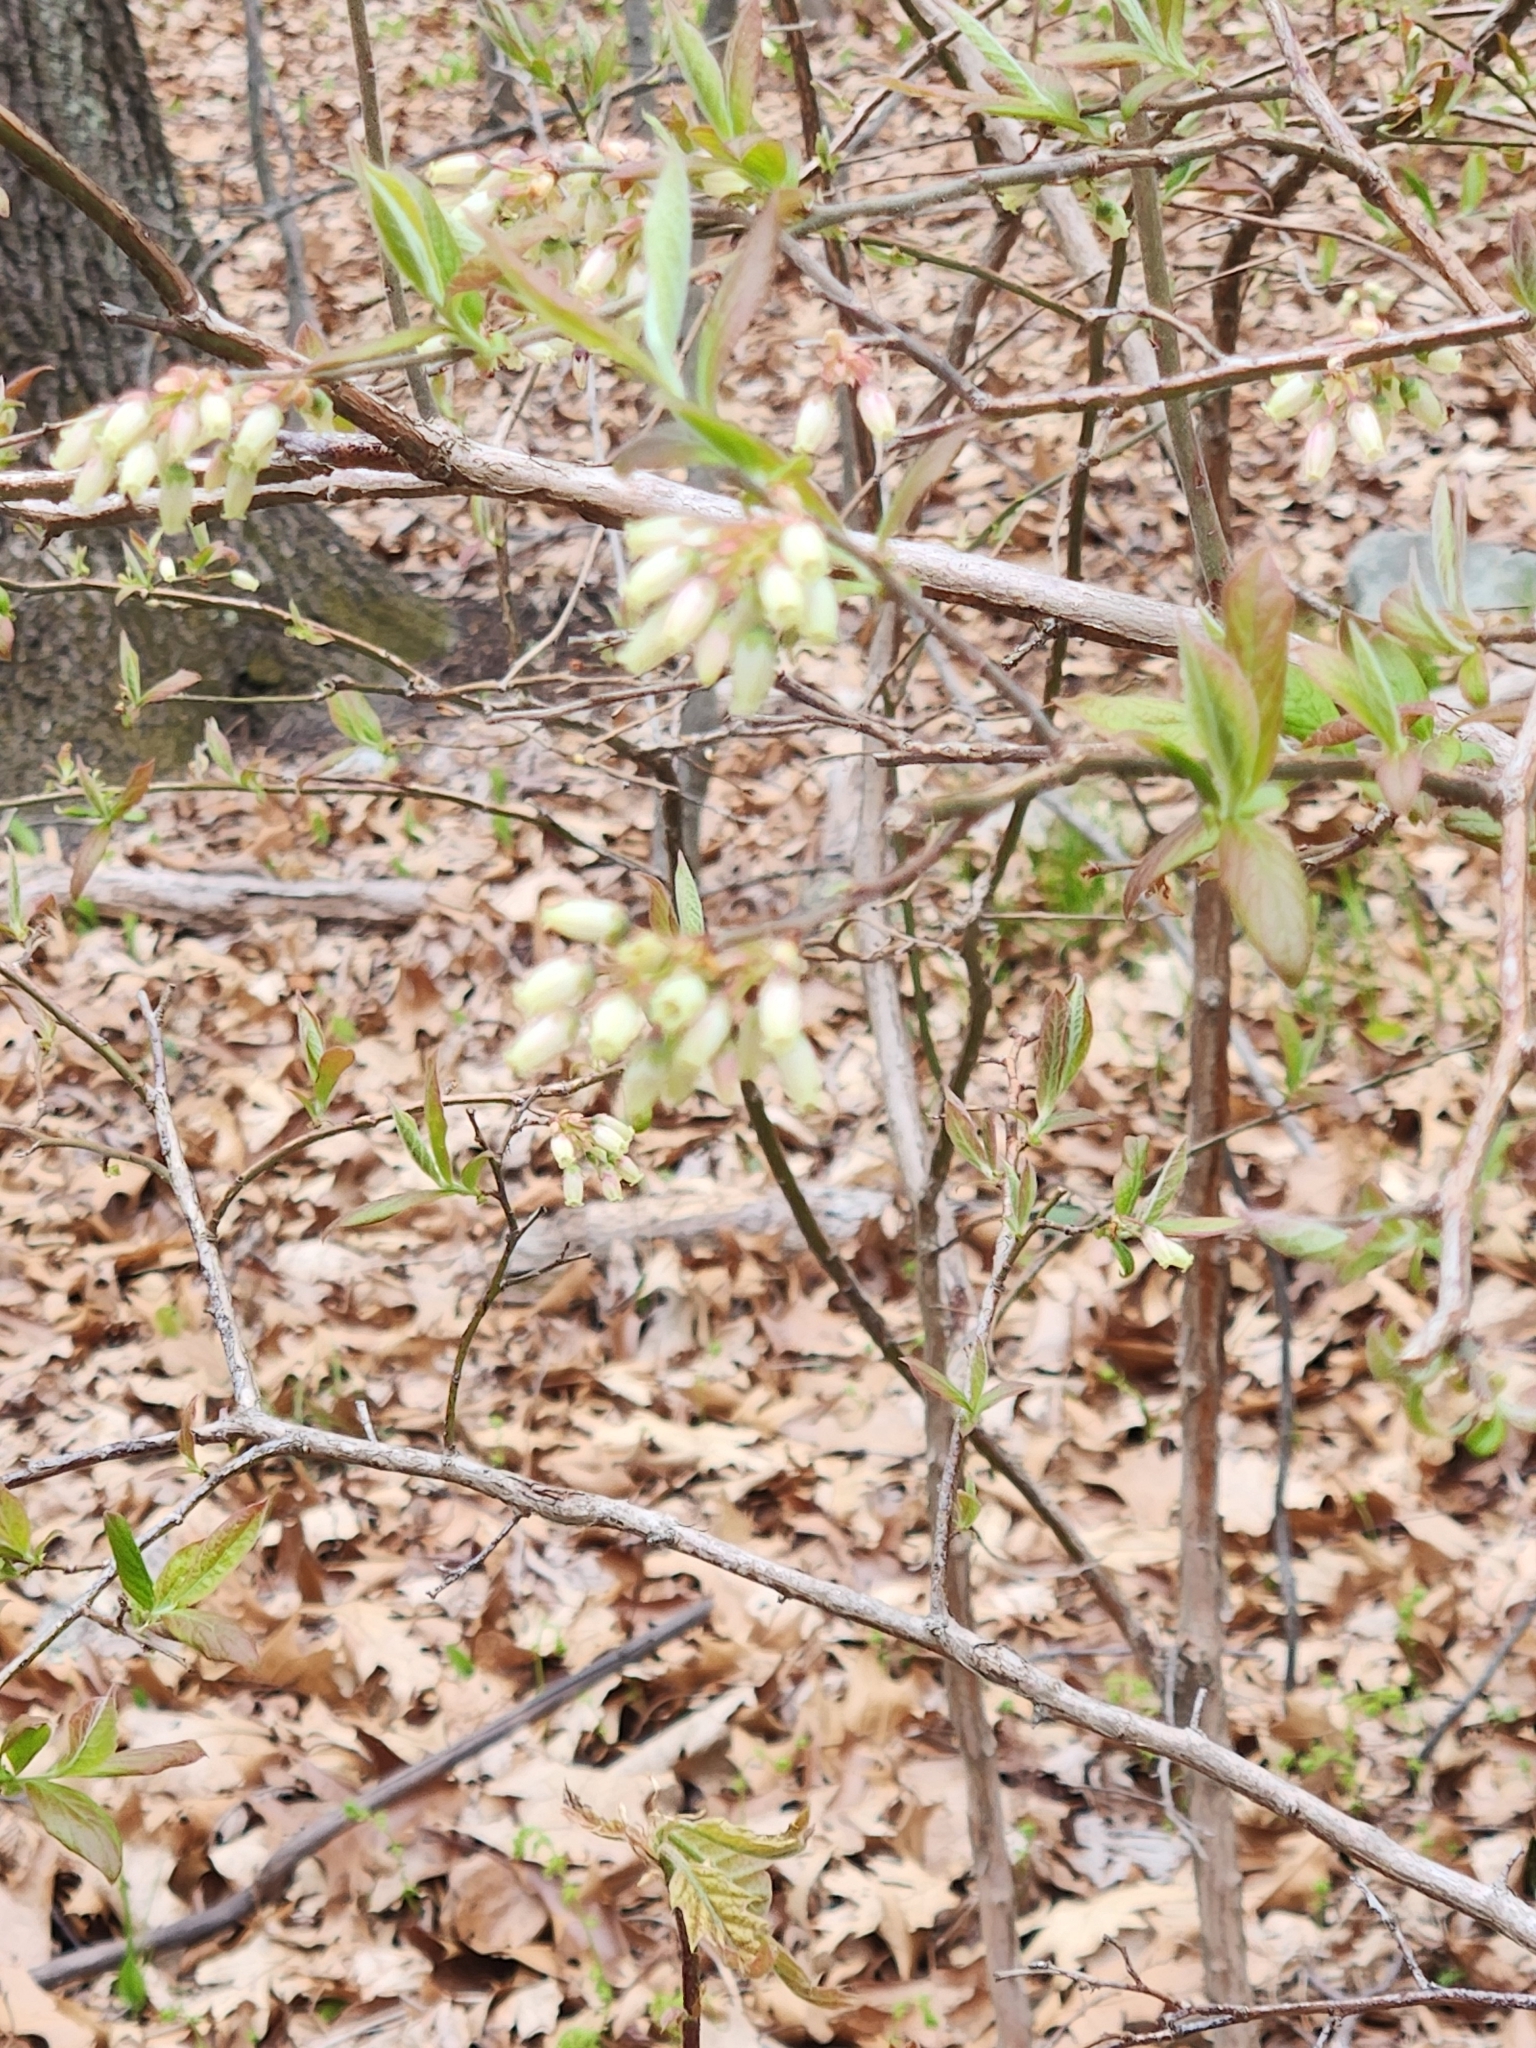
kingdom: Plantae
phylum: Tracheophyta
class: Magnoliopsida
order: Ericales
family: Ericaceae
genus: Vaccinium
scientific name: Vaccinium corymbosum
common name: Blueberry
